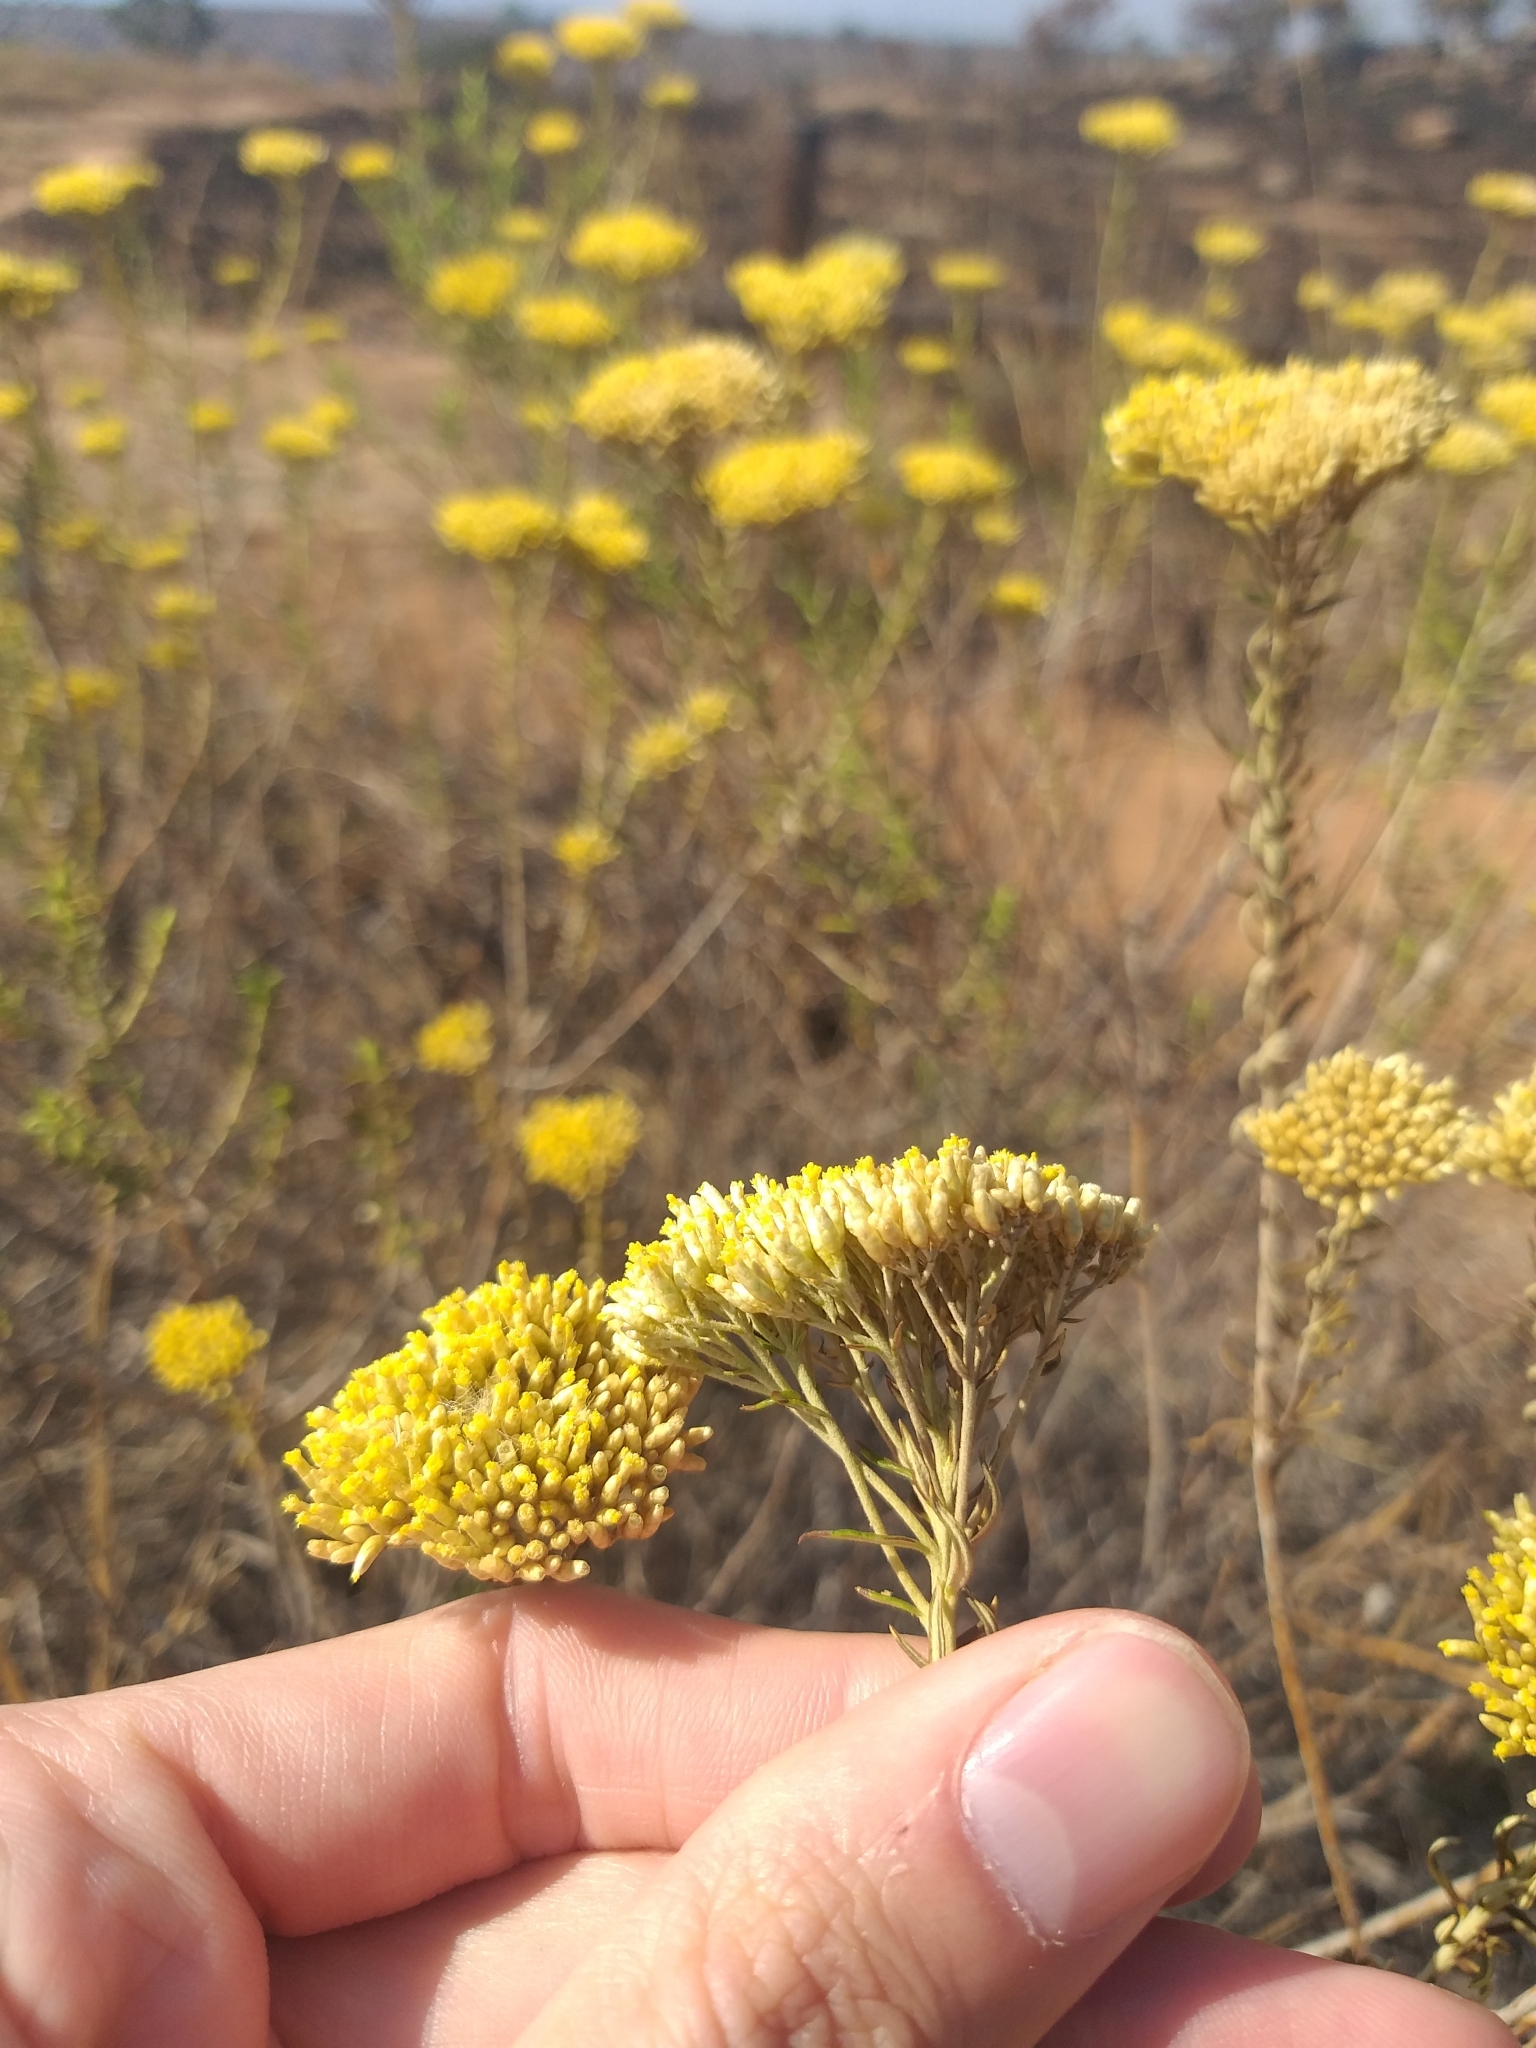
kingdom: Plantae
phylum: Tracheophyta
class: Magnoliopsida
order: Asterales
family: Asteraceae
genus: Helichrysum
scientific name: Helichrysum kraussii
